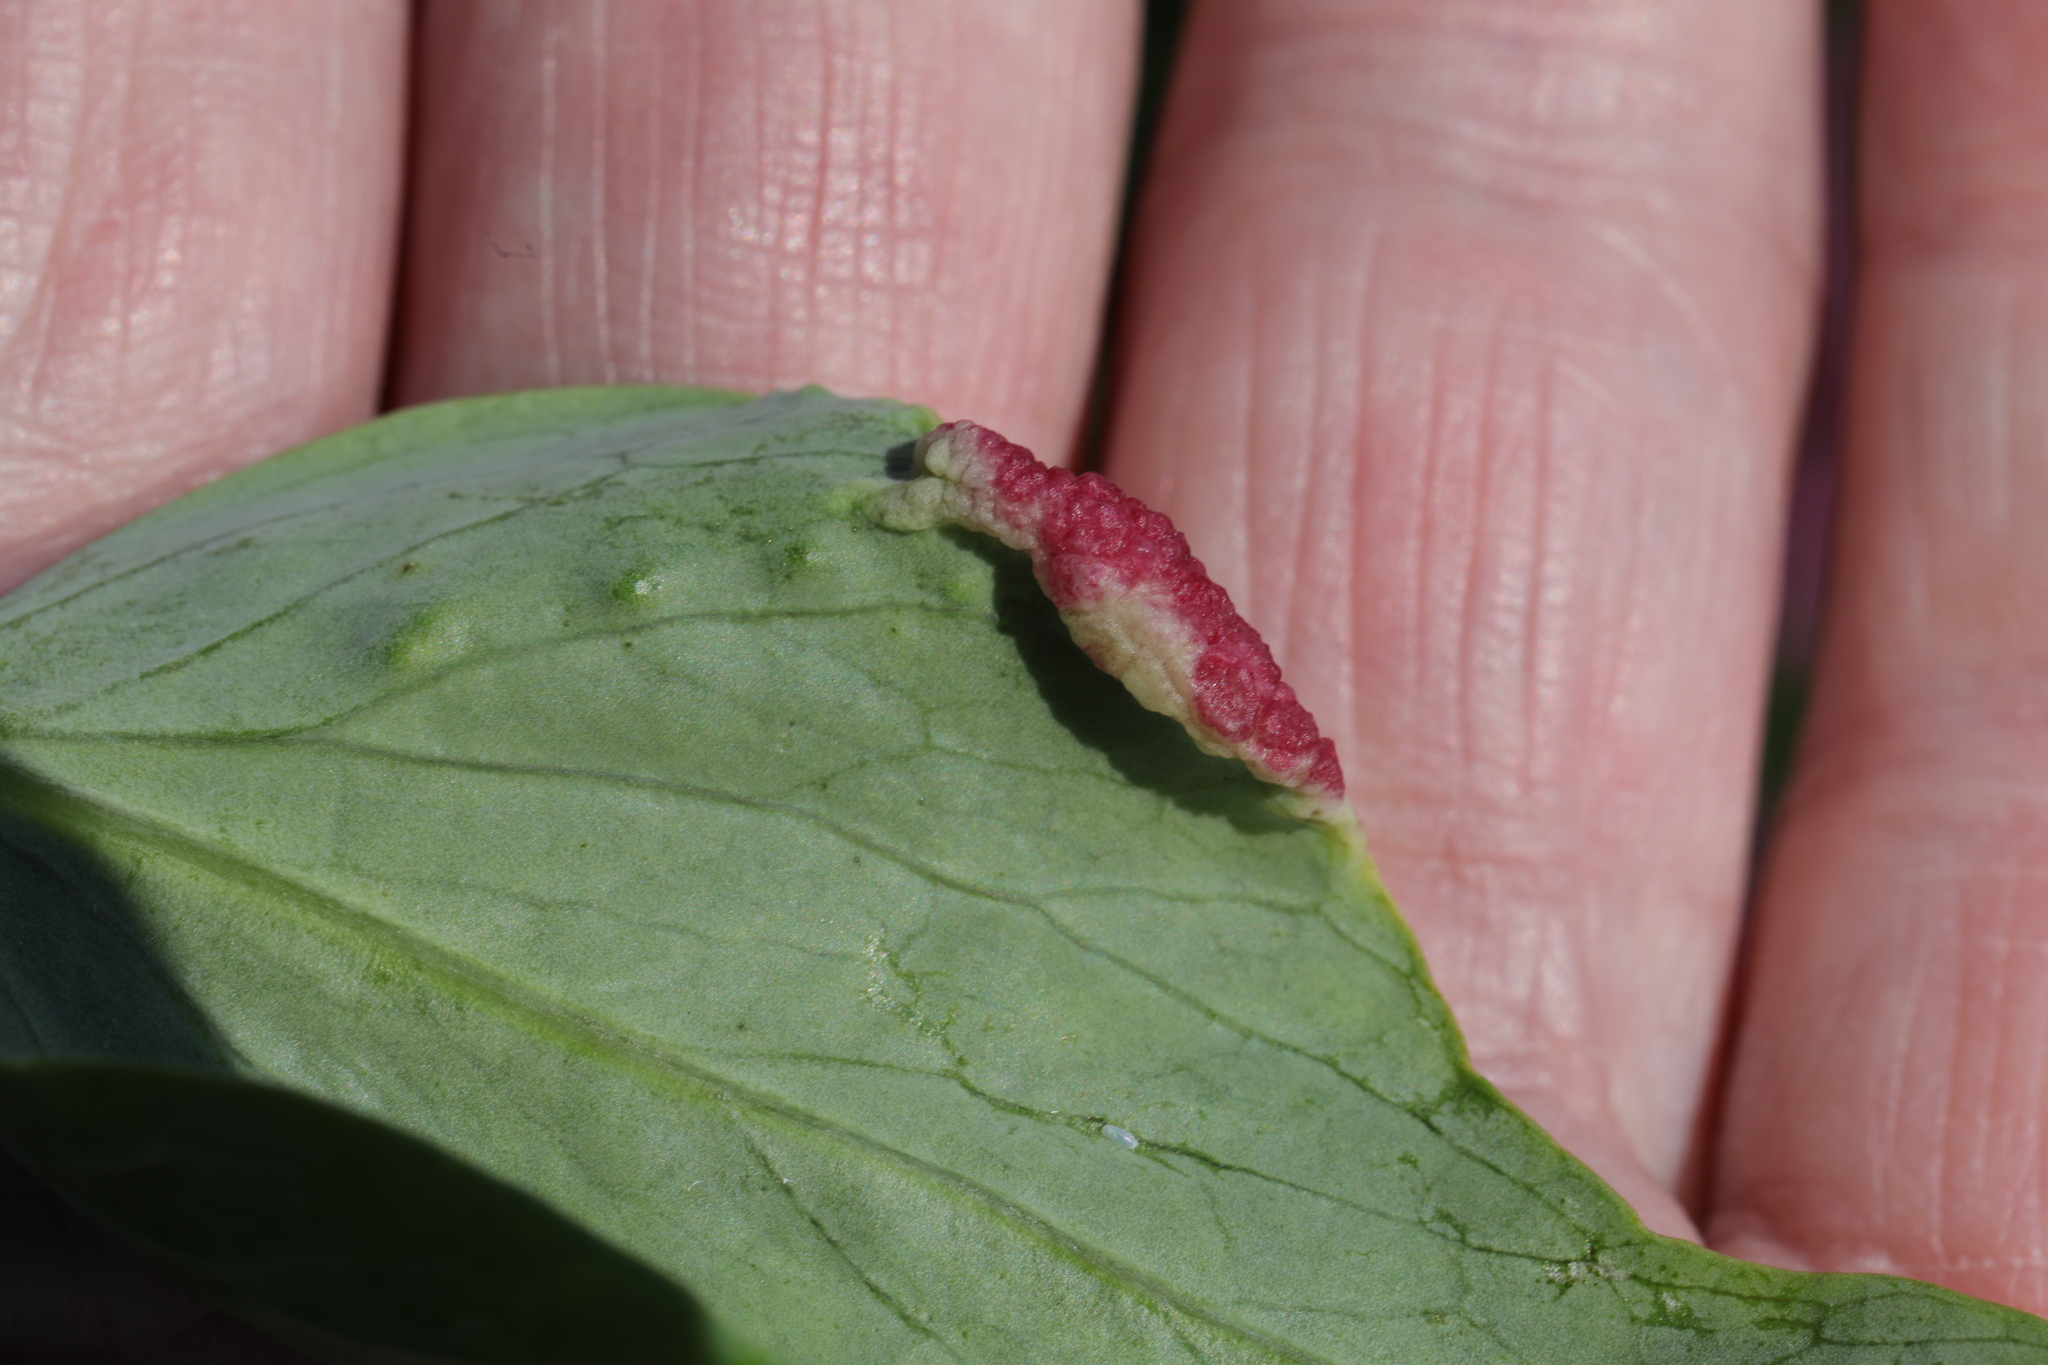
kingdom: Animalia
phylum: Arthropoda
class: Insecta
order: Hemiptera
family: Triozidae
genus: Trioza
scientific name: Trioza centranthi
